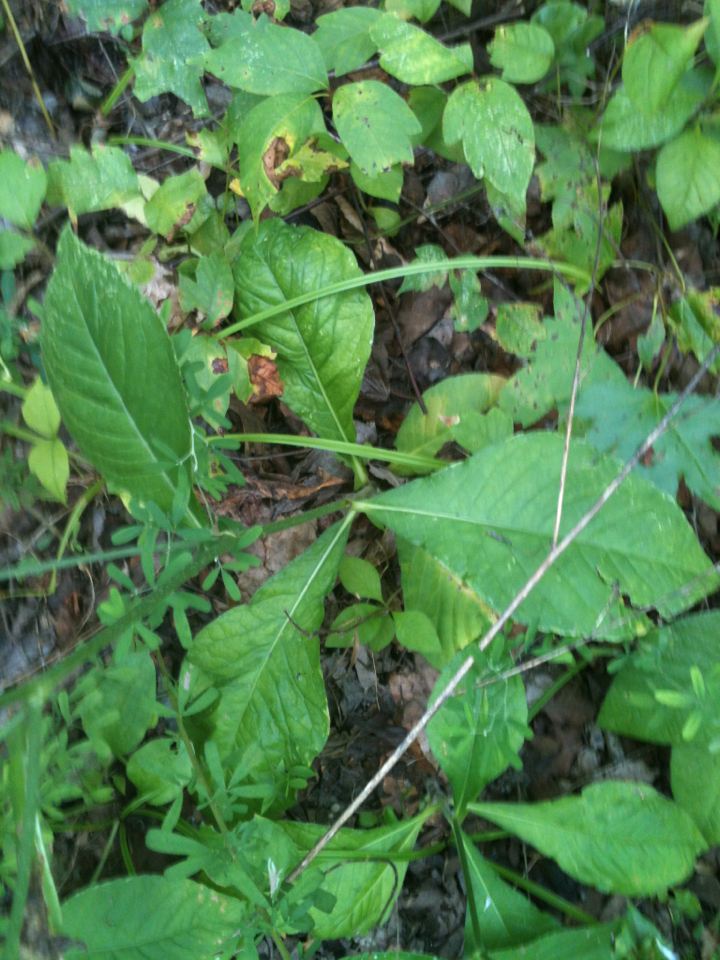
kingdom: Plantae
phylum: Tracheophyta
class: Magnoliopsida
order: Asterales
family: Asteraceae
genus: Elephantopus
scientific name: Elephantopus carolinianus
